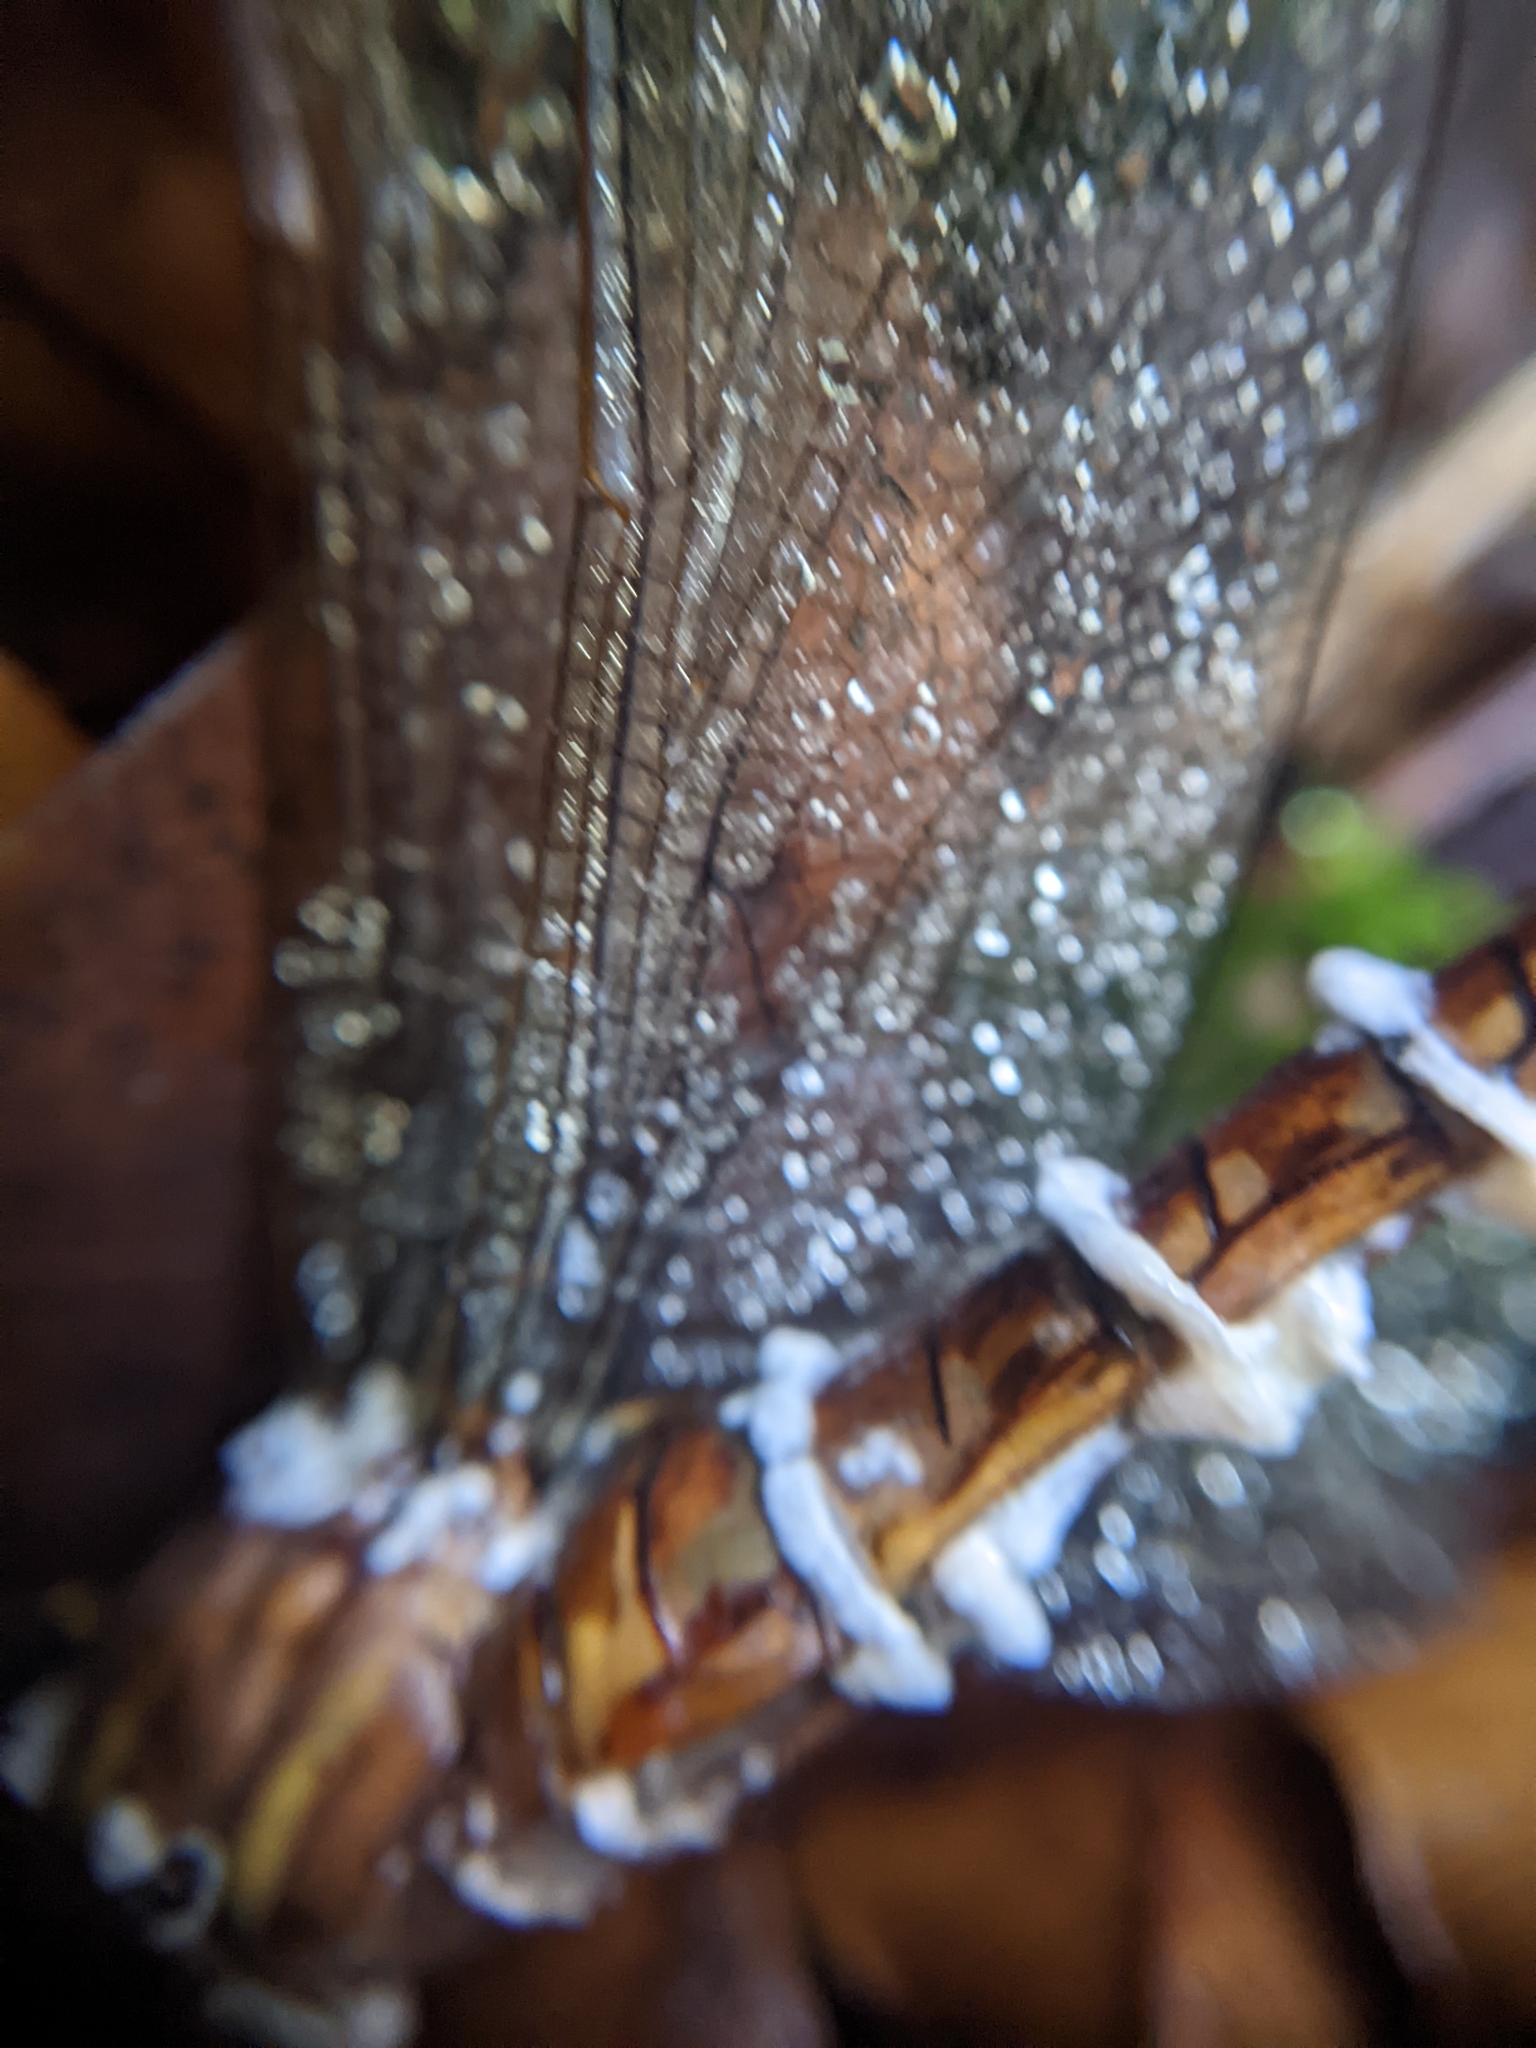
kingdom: Fungi
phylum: Ascomycota
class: Sordariomycetes
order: Hypocreales
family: Cordycipitaceae
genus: Beauveria
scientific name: Beauveria bassiana
